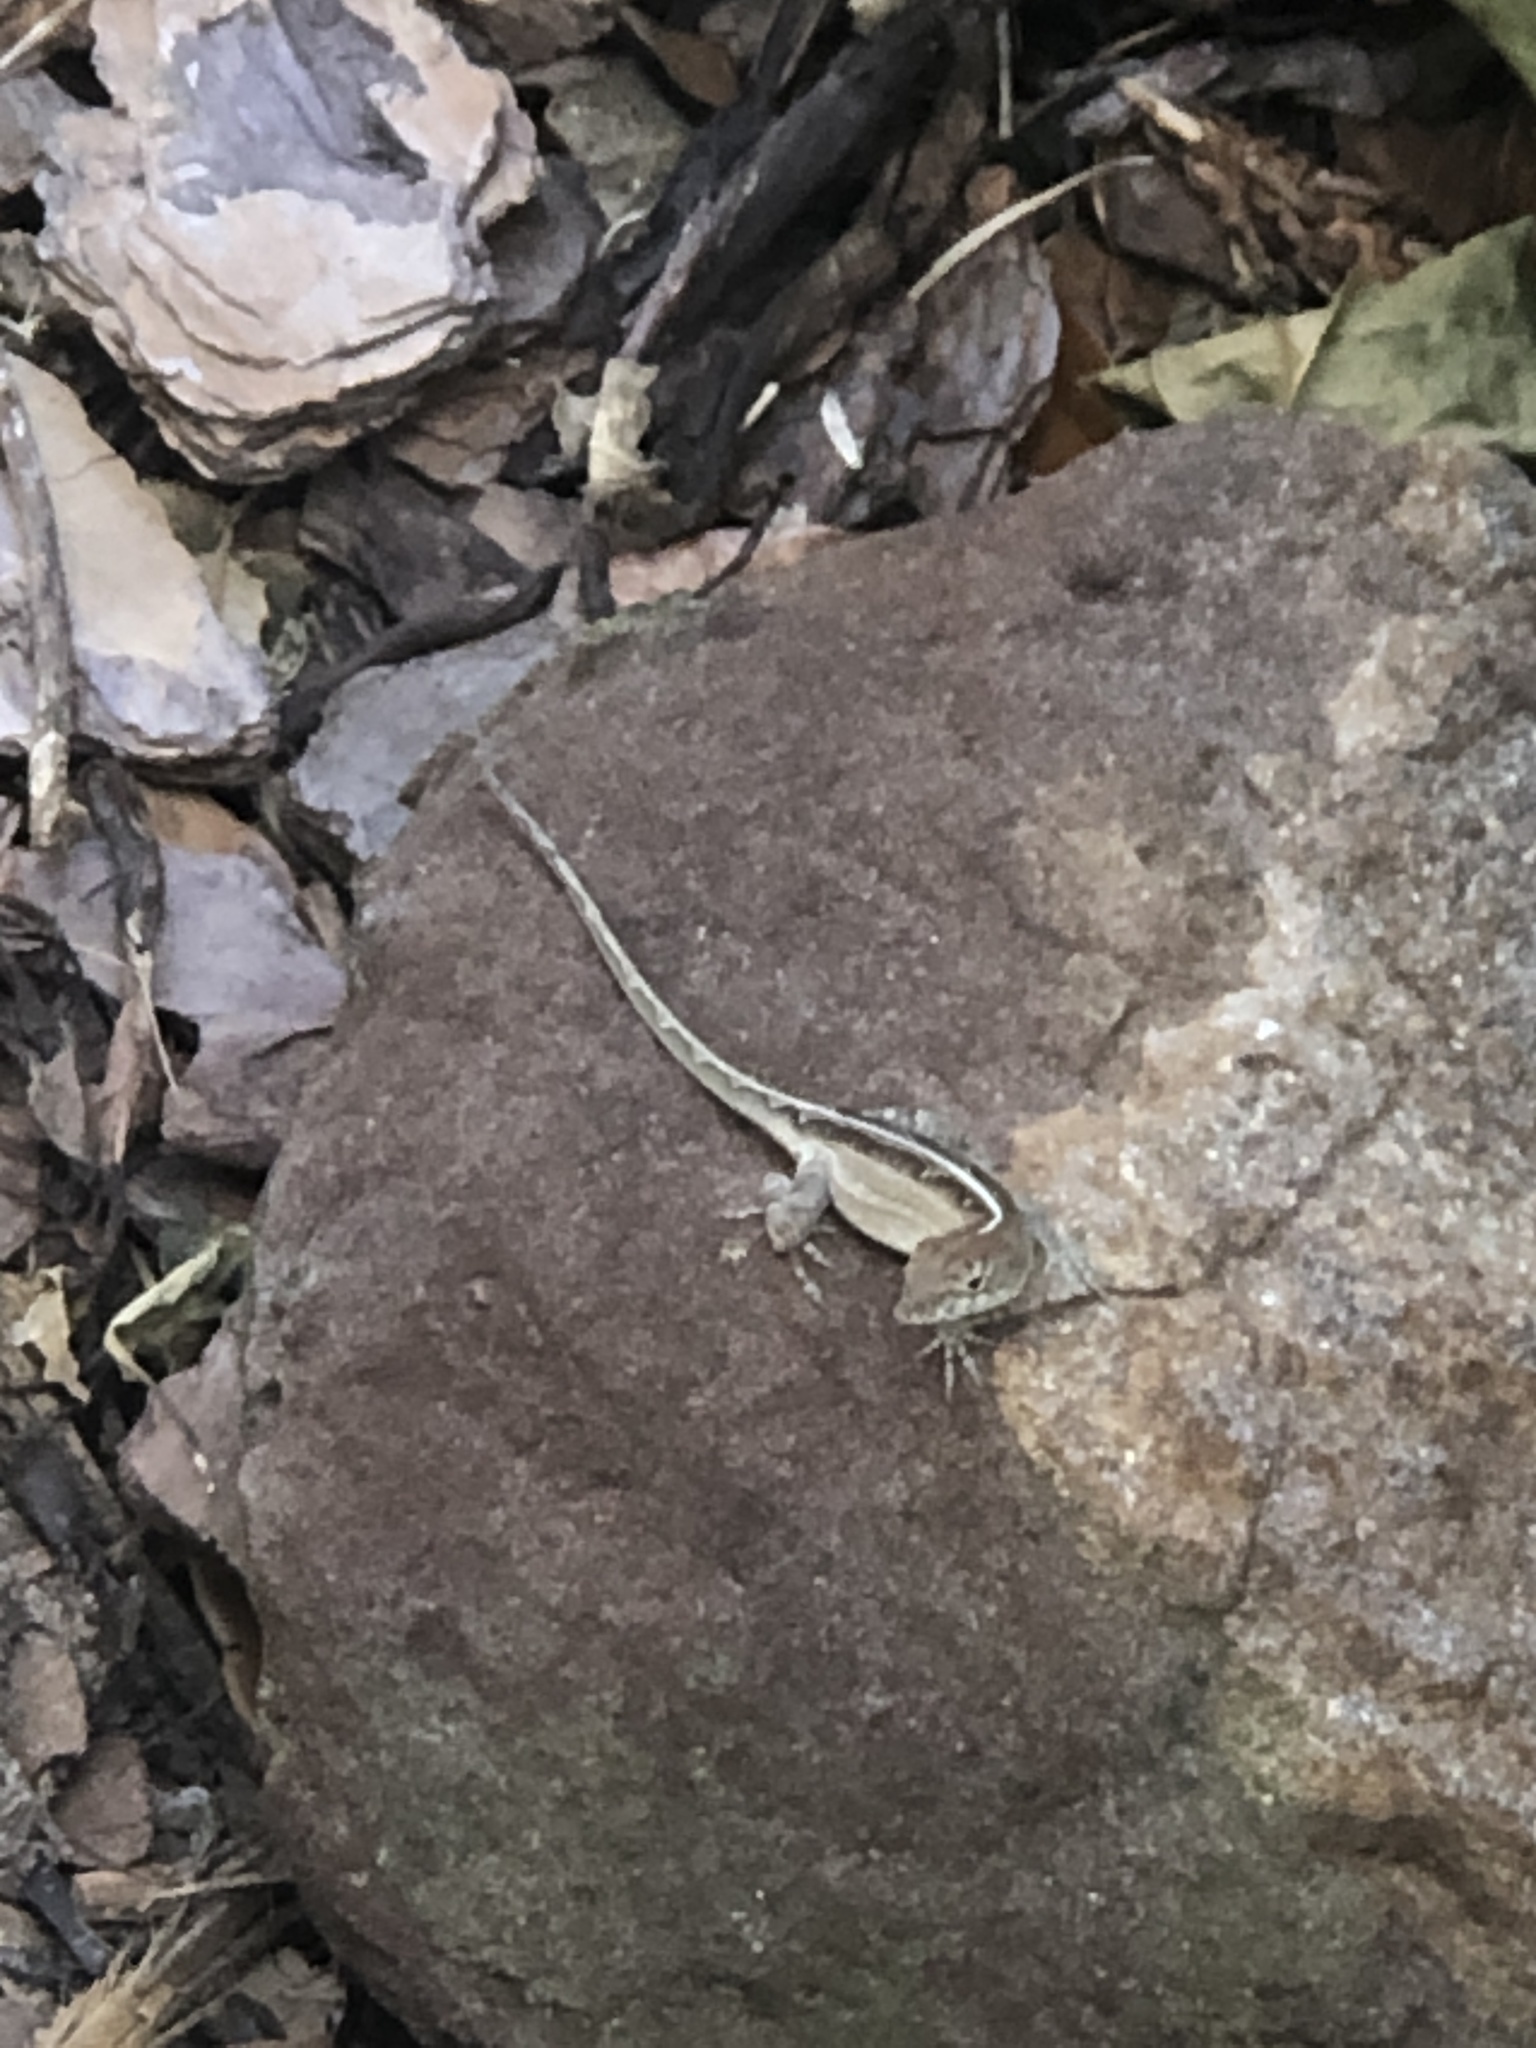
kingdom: Animalia
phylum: Chordata
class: Squamata
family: Dactyloidae
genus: Anolis
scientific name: Anolis sagrei
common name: Brown anole
